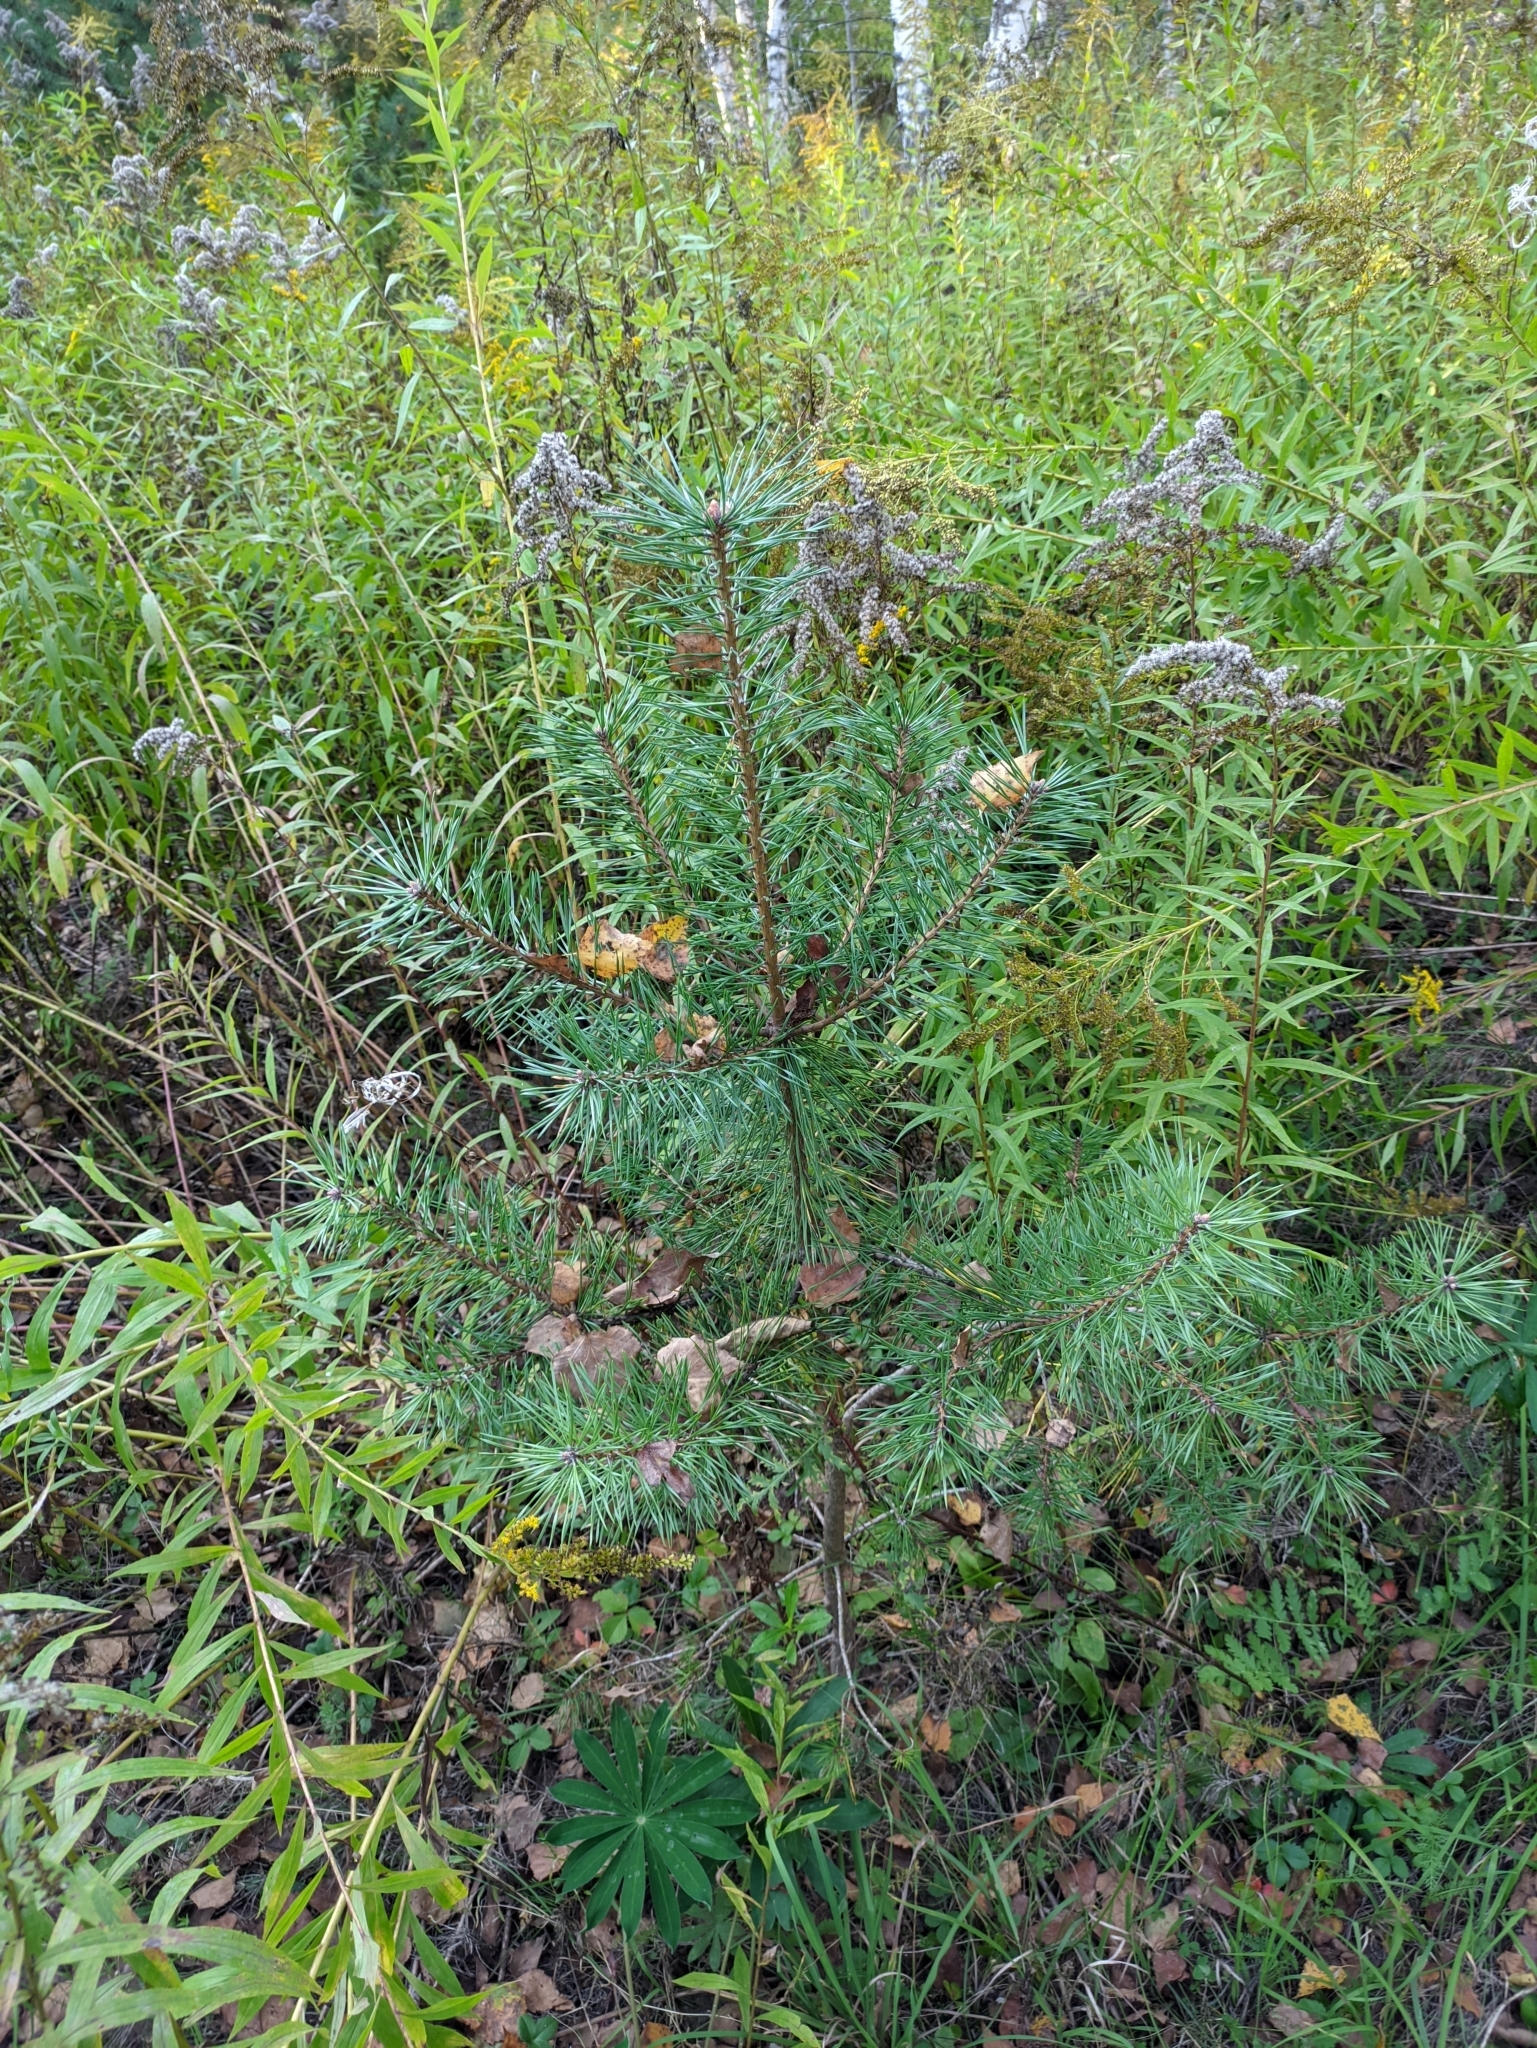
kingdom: Plantae
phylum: Tracheophyta
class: Pinopsida
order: Pinales
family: Pinaceae
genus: Pinus
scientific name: Pinus sylvestris
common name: Scots pine
